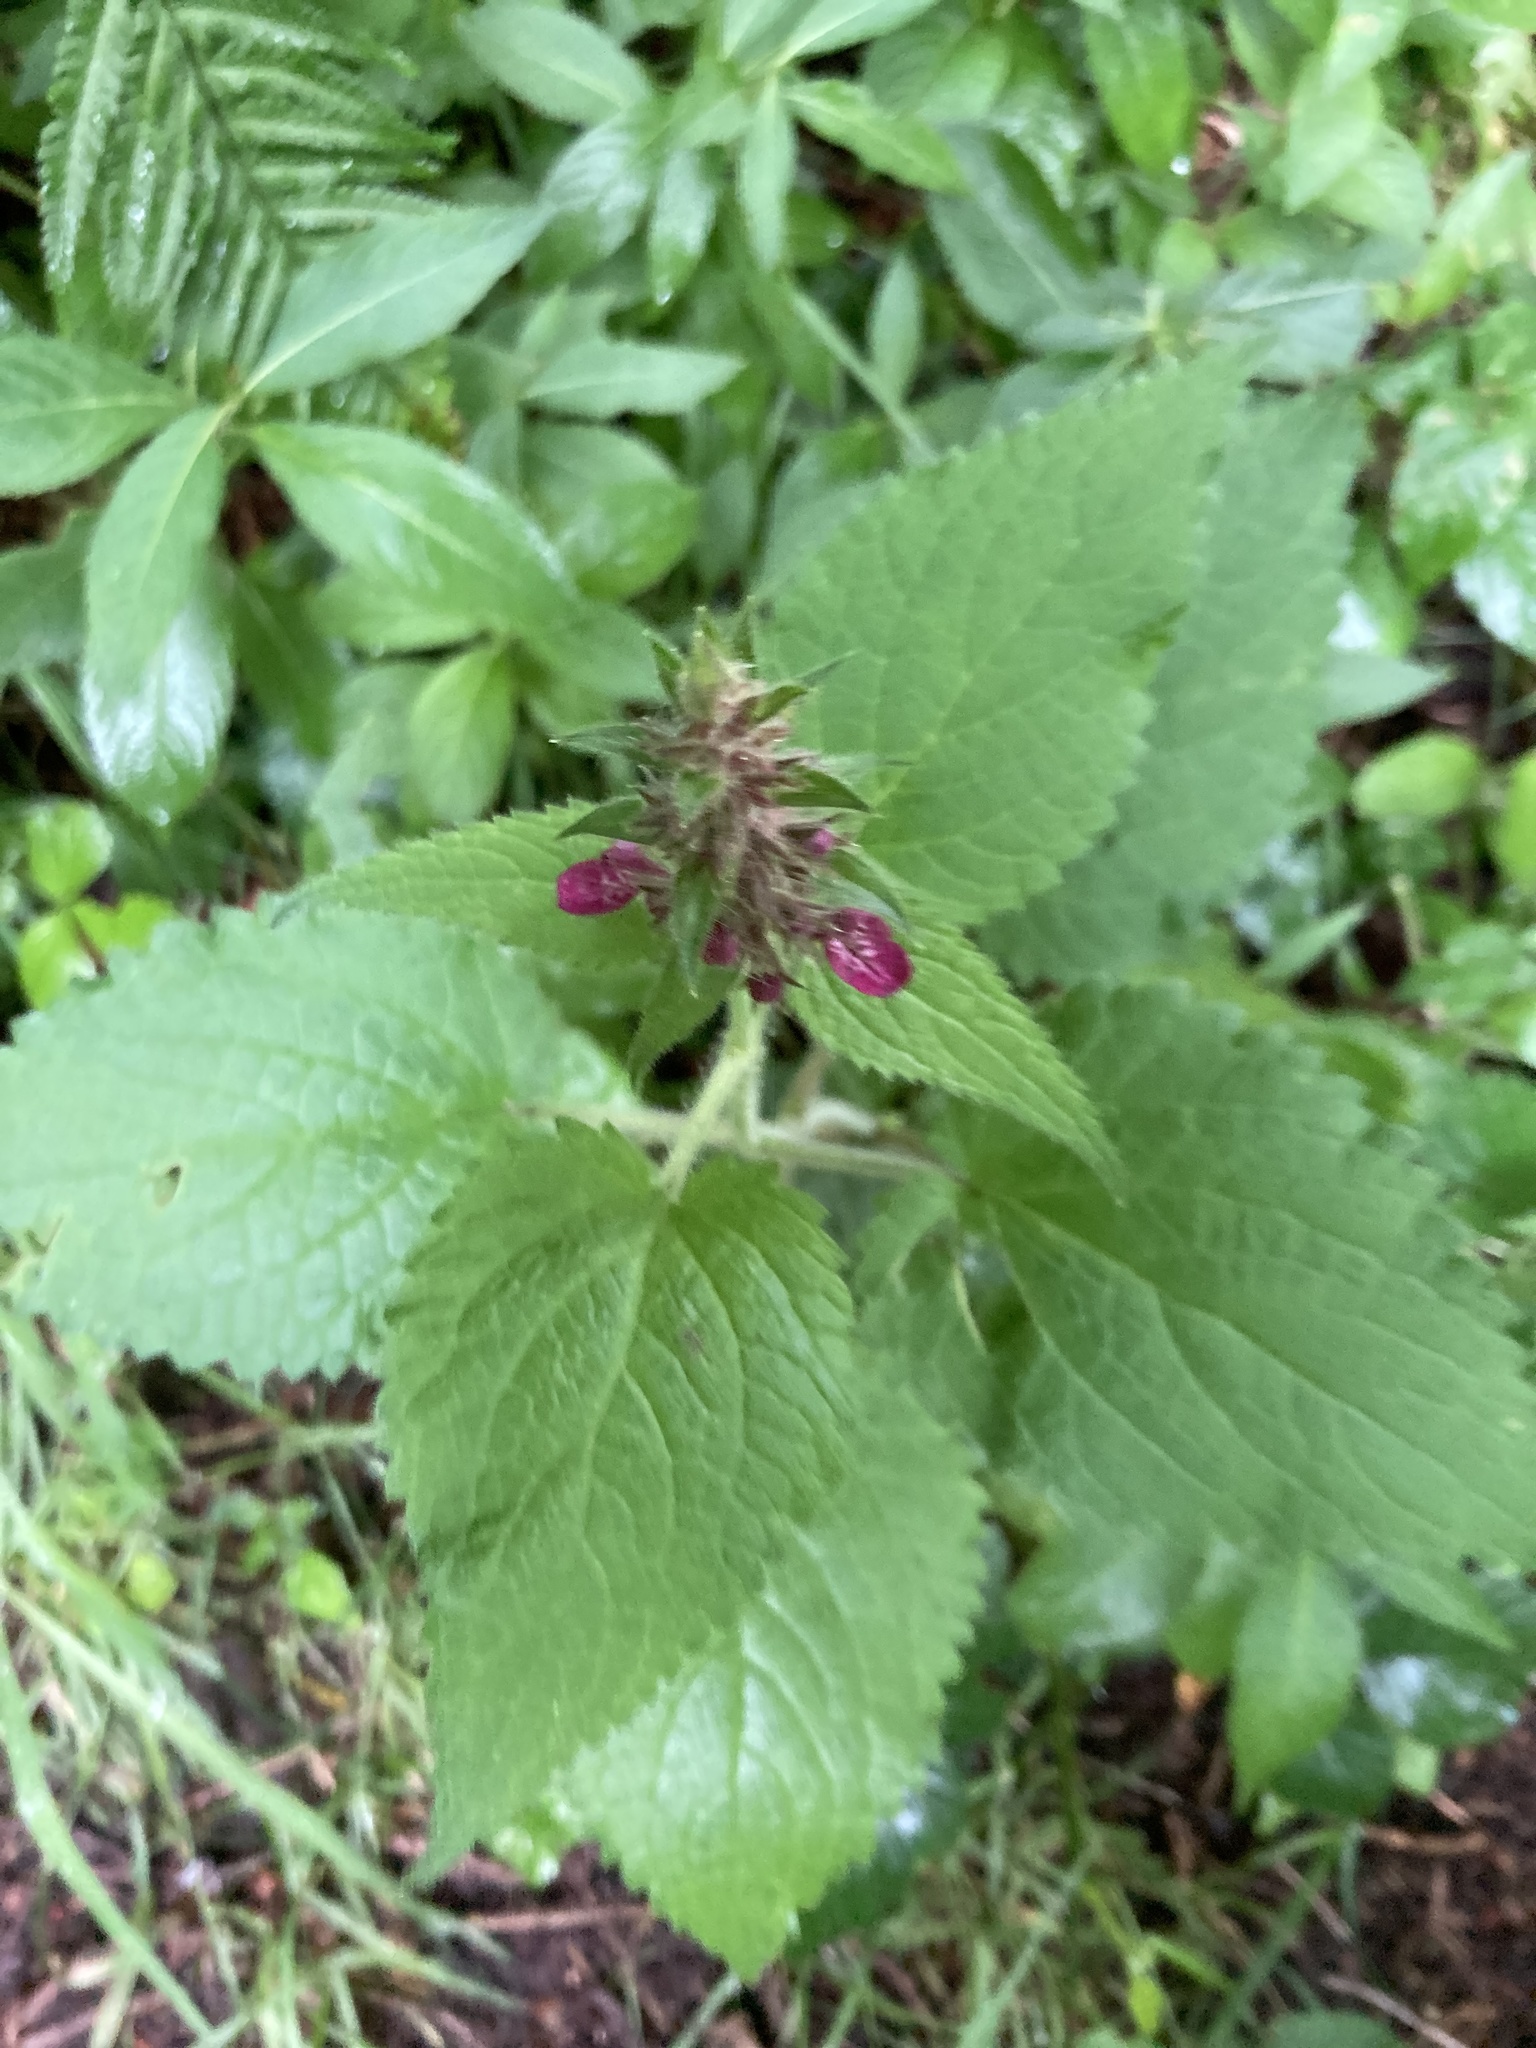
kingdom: Plantae
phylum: Tracheophyta
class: Magnoliopsida
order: Lamiales
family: Lamiaceae
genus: Stachys
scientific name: Stachys sylvatica
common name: Hedge woundwort
